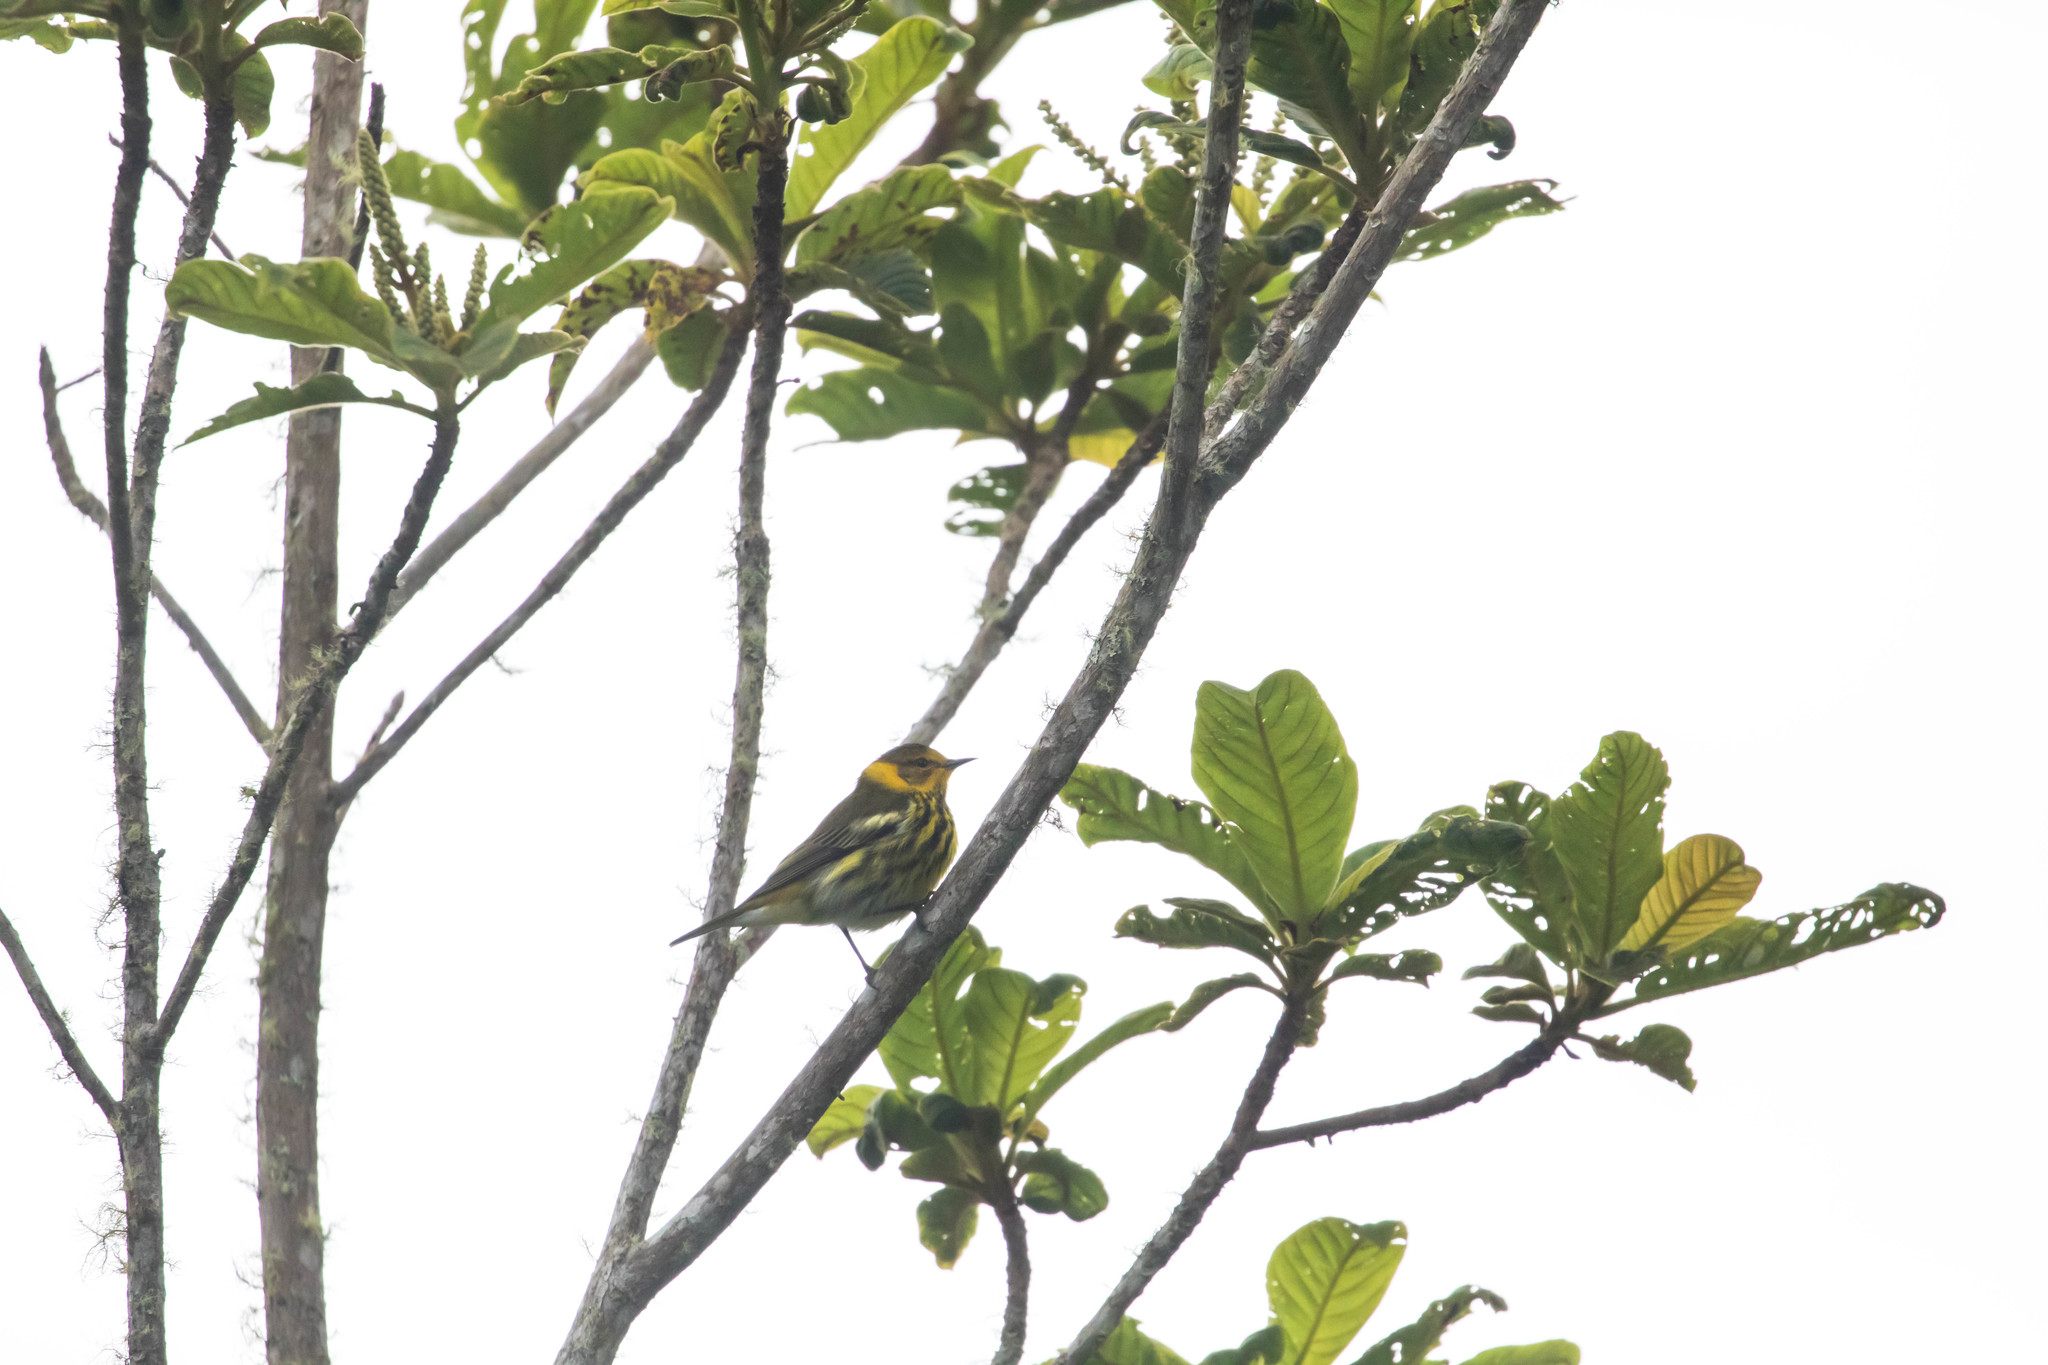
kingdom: Animalia
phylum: Chordata
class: Aves
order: Passeriformes
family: Parulidae
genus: Setophaga
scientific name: Setophaga tigrina
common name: Cape may warbler
